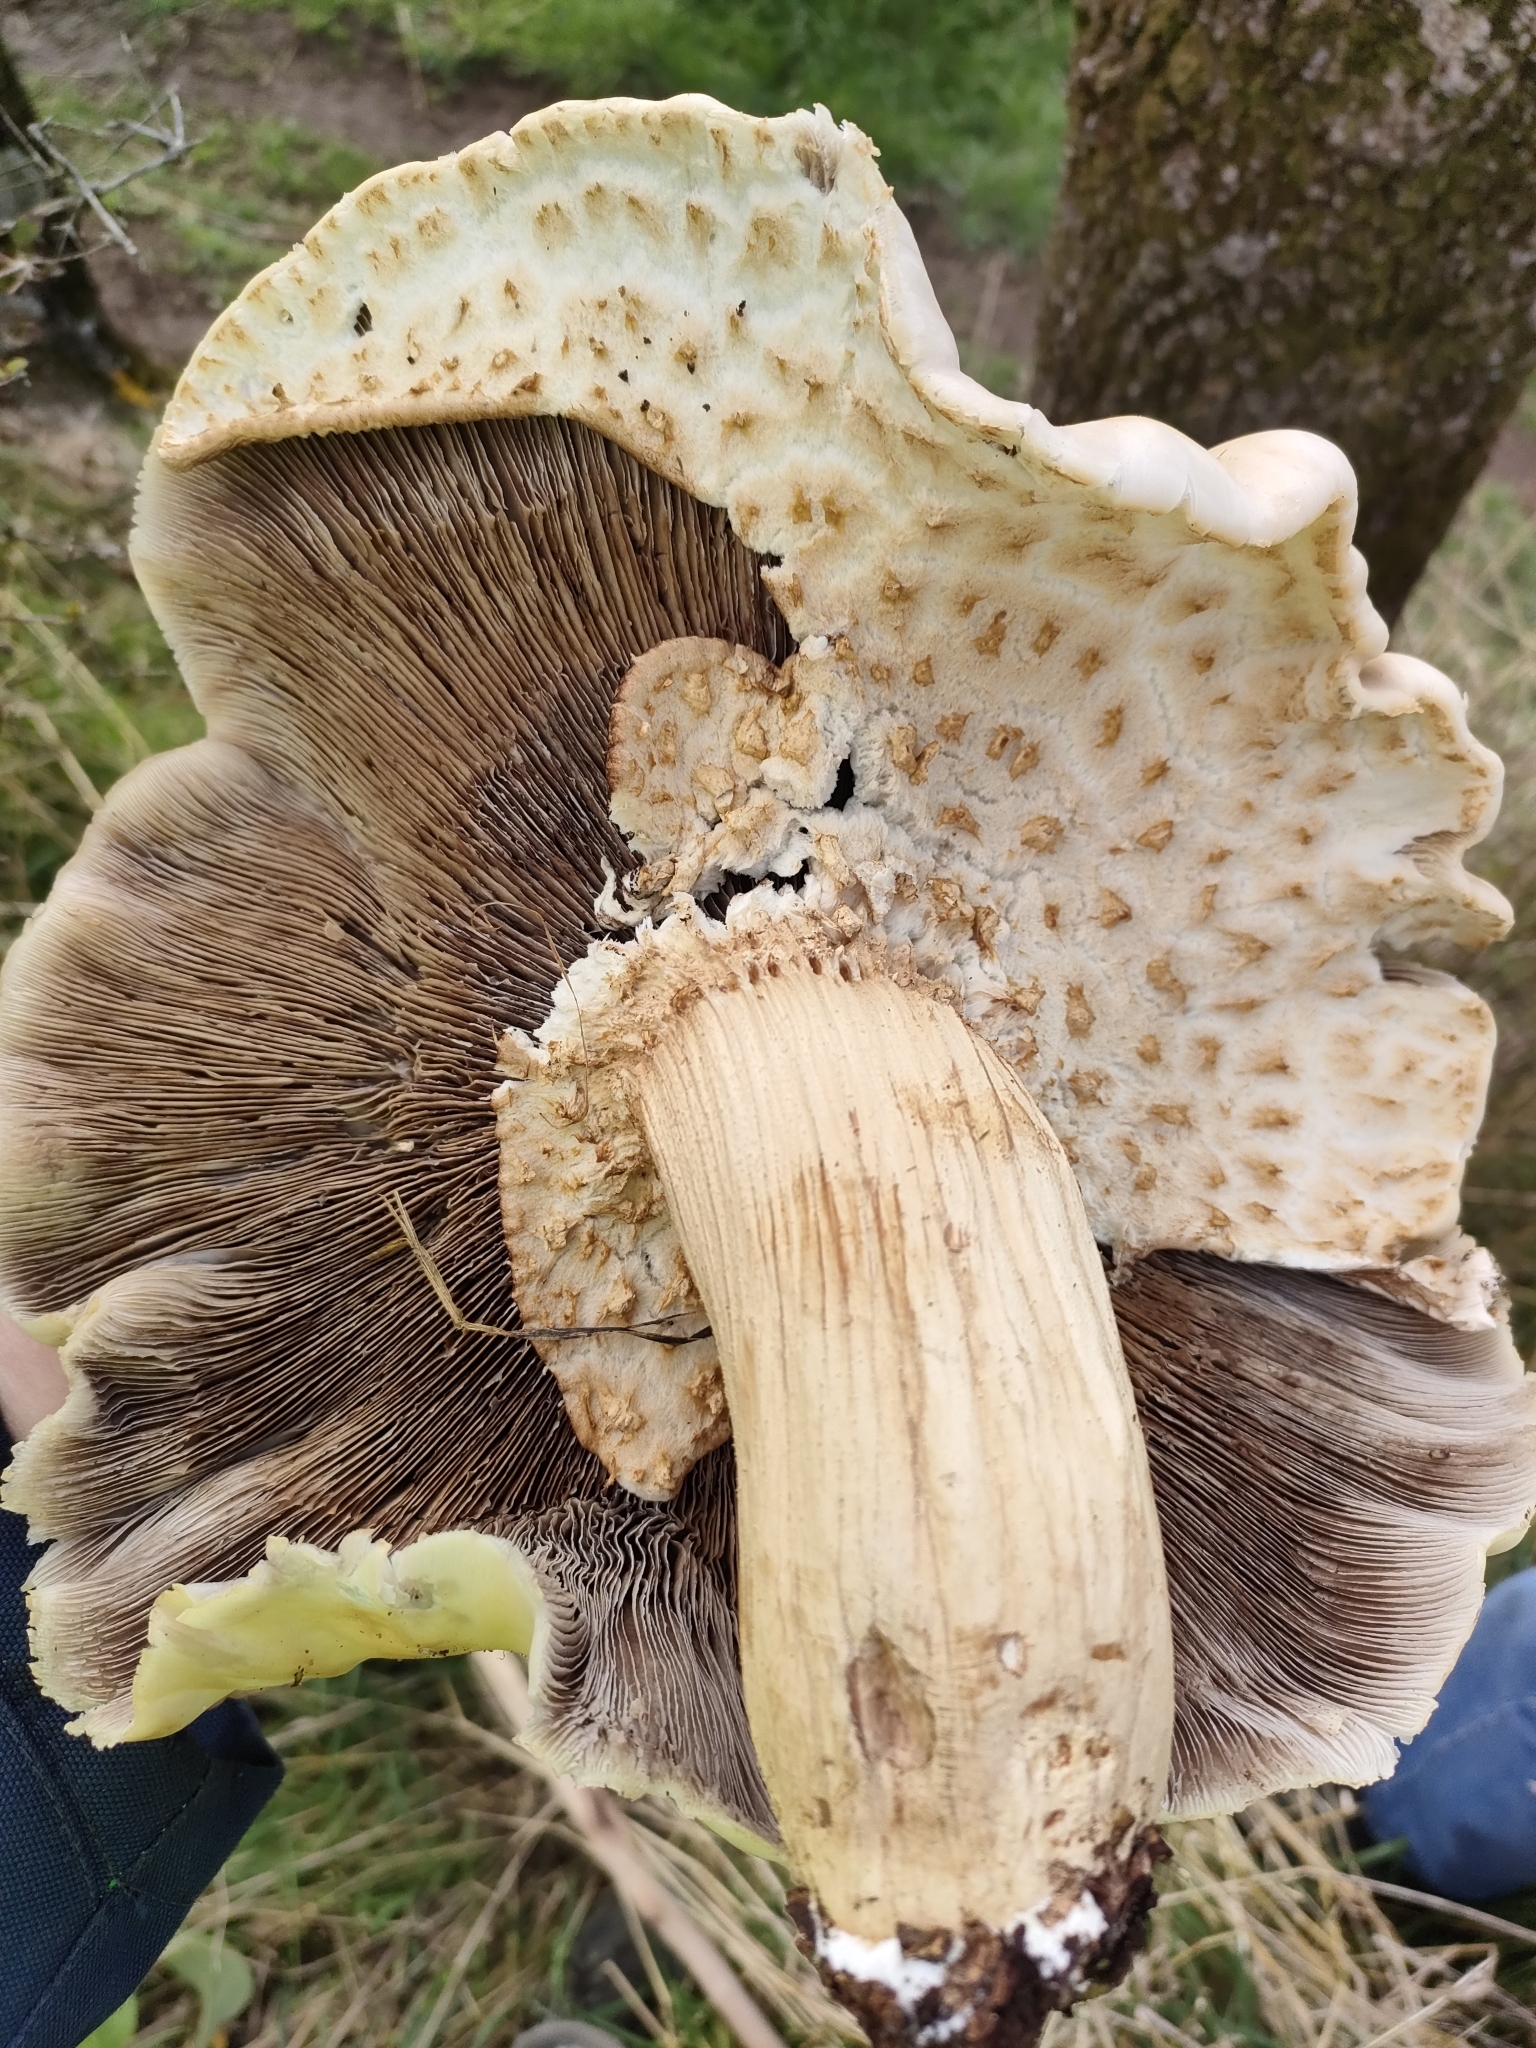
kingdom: Fungi
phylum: Basidiomycota
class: Agaricomycetes
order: Agaricales
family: Tubariaceae
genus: Cyclocybe
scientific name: Cyclocybe parasitica
